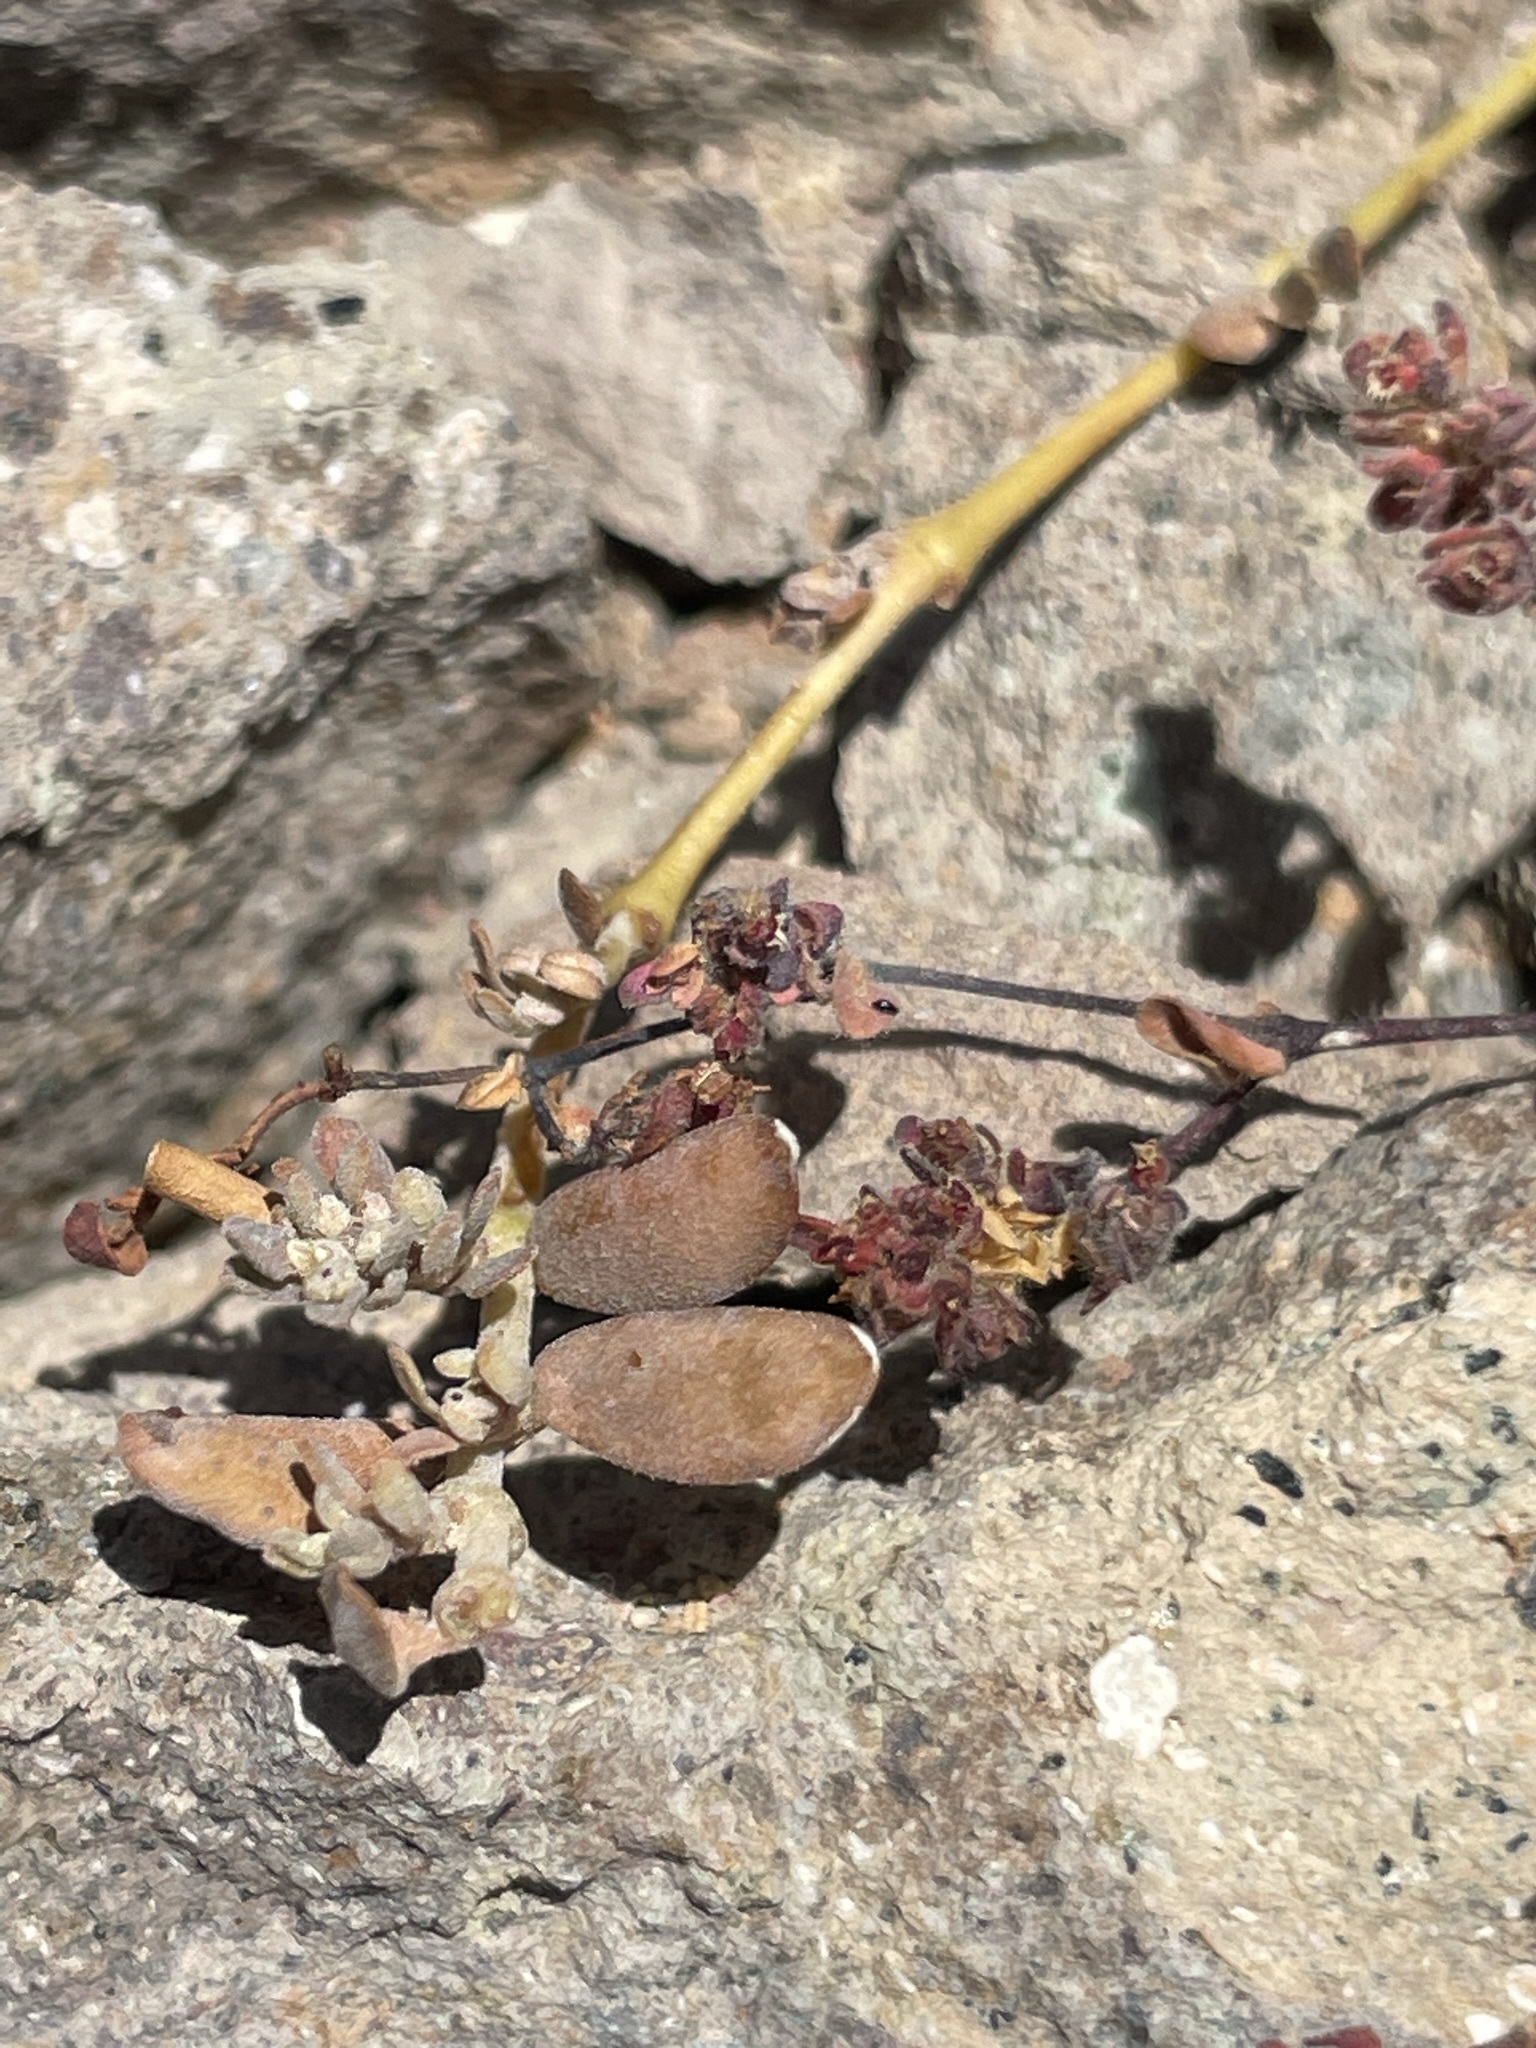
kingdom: Plantae
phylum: Tracheophyta
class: Magnoliopsida
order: Malpighiales
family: Euphorbiaceae
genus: Euphorbia
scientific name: Euphorbia setiloba
